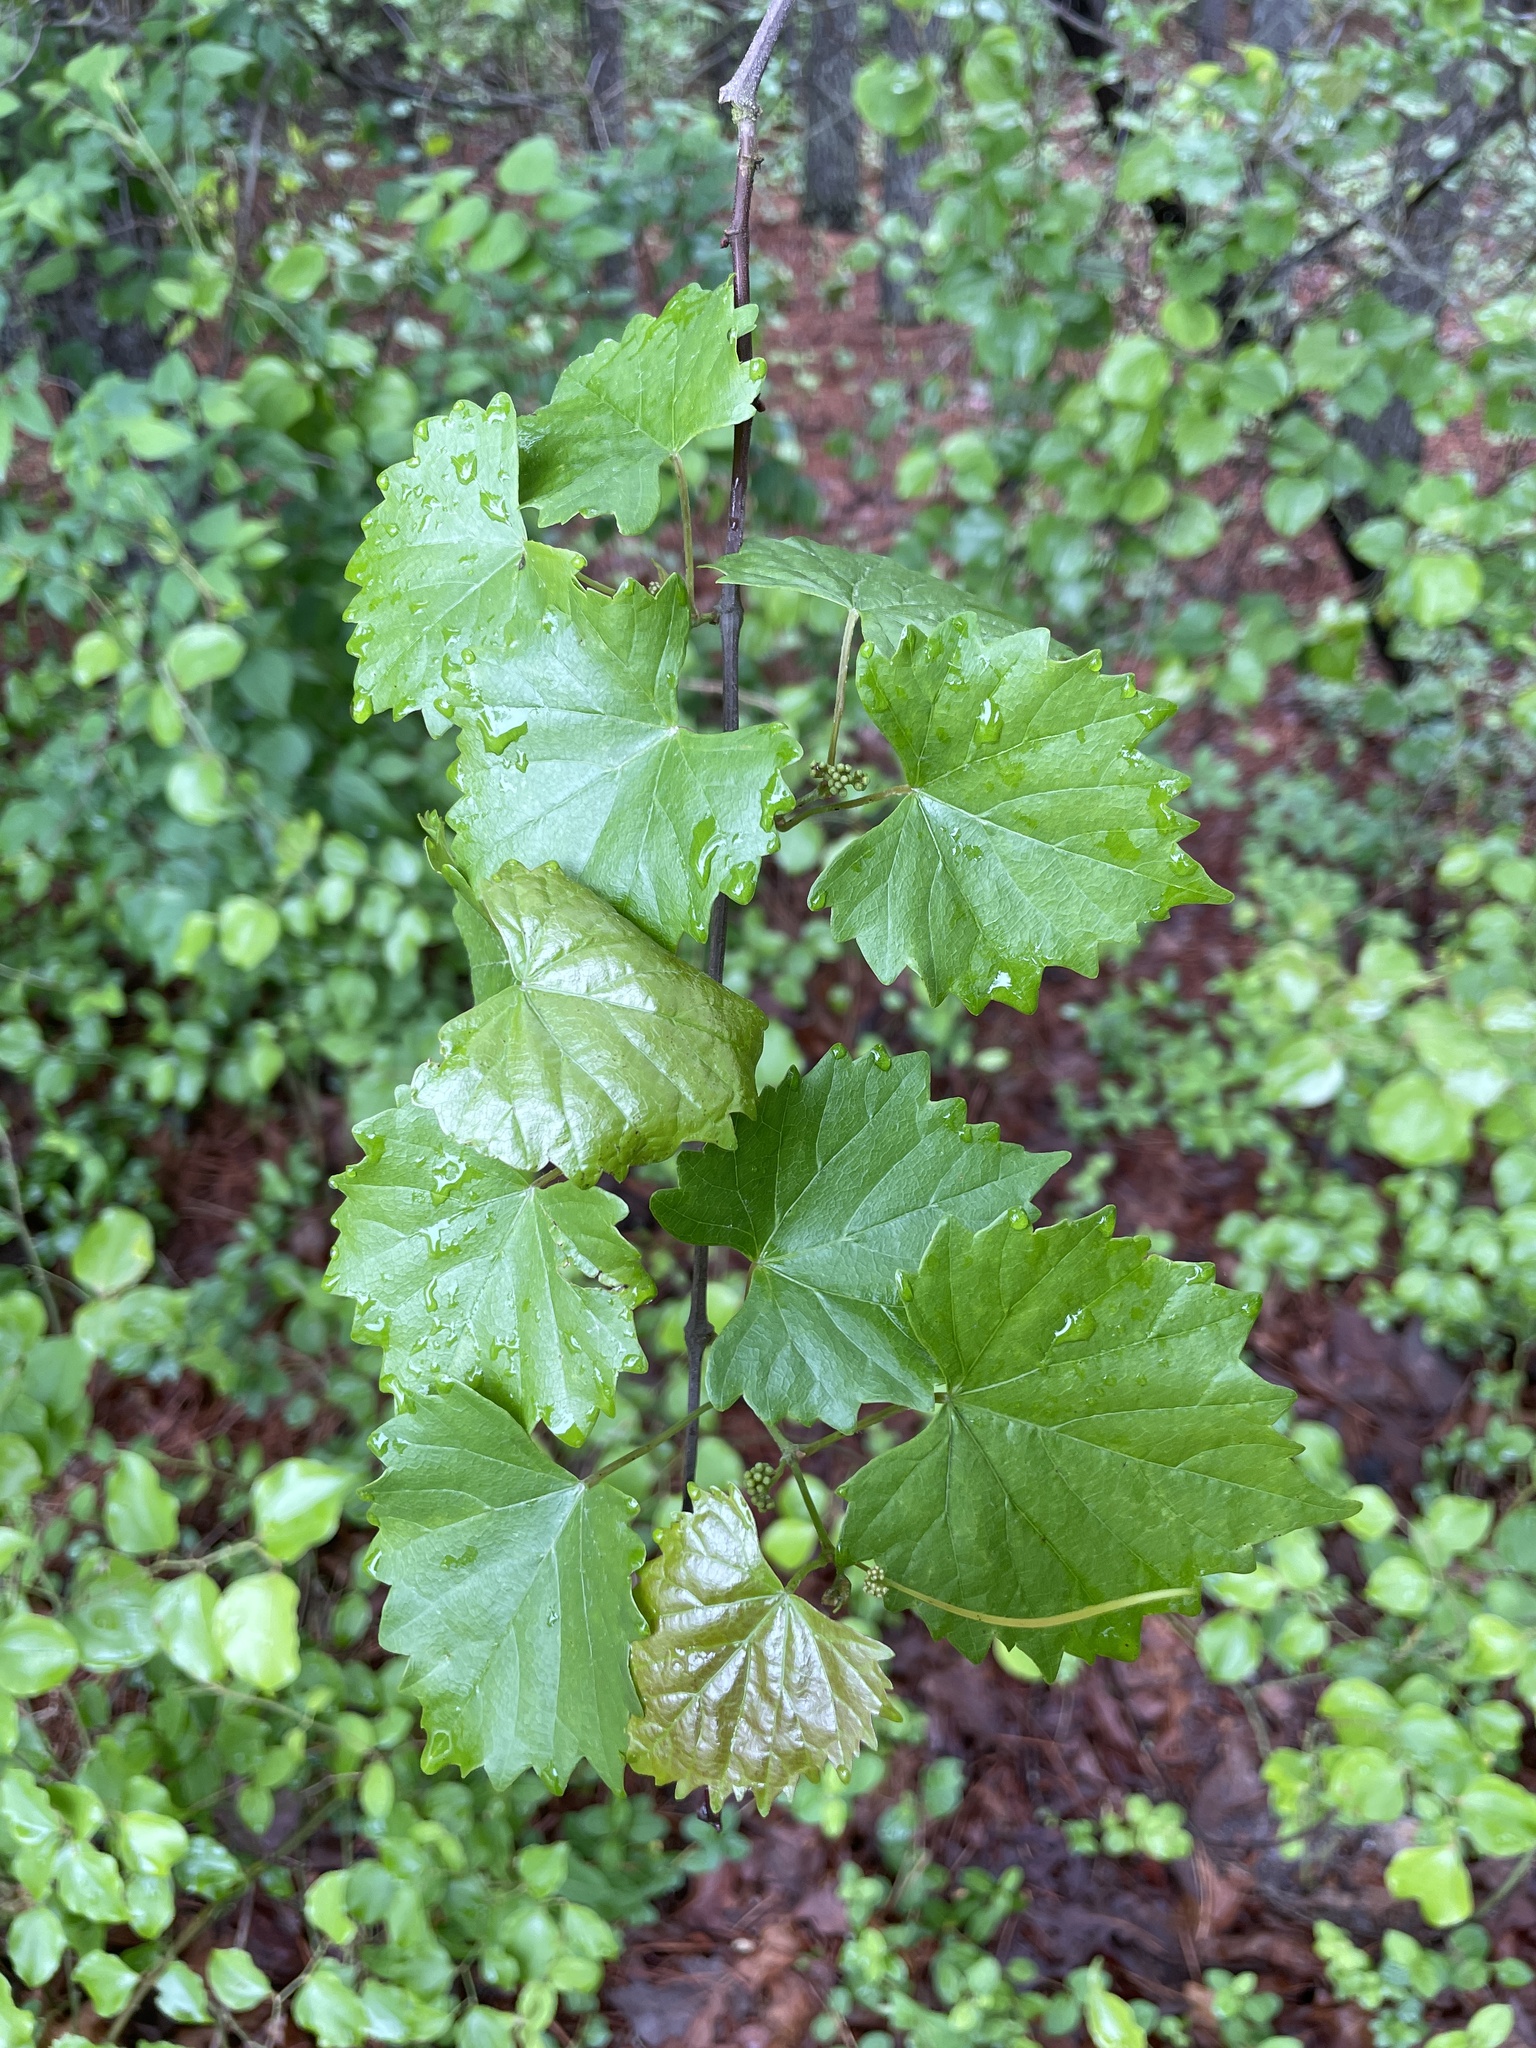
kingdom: Plantae
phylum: Tracheophyta
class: Magnoliopsida
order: Vitales
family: Vitaceae
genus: Vitis
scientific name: Vitis rotundifolia
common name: Muscadine grape
